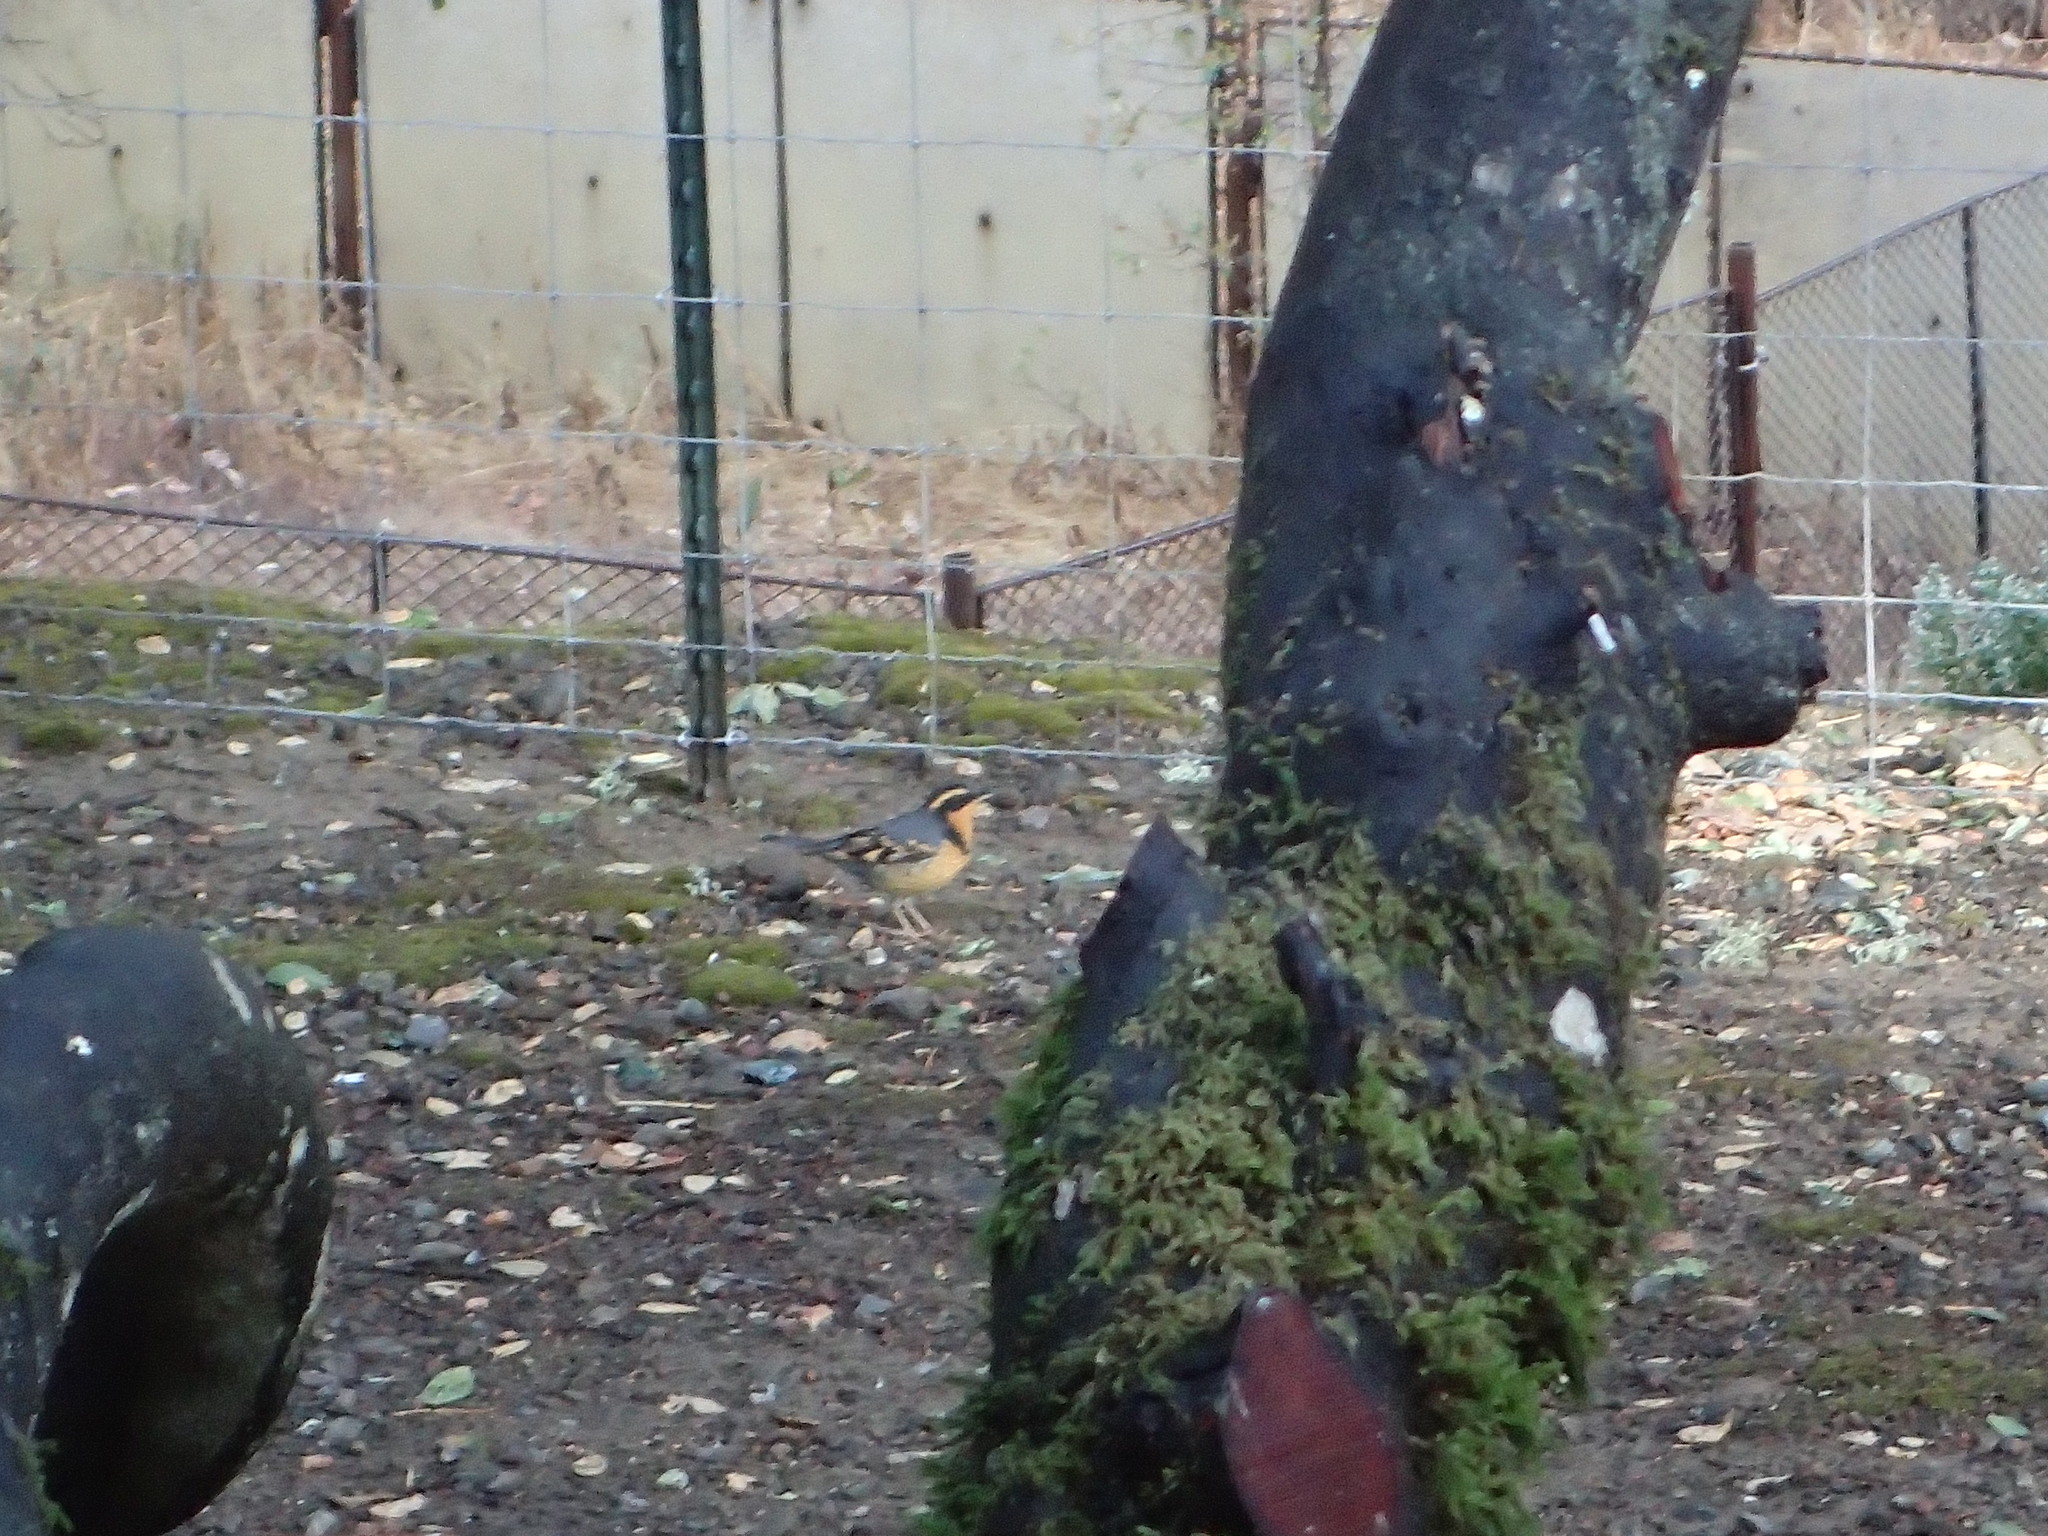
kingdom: Animalia
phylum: Chordata
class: Aves
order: Passeriformes
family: Turdidae
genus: Ixoreus
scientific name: Ixoreus naevius
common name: Varied thrush
